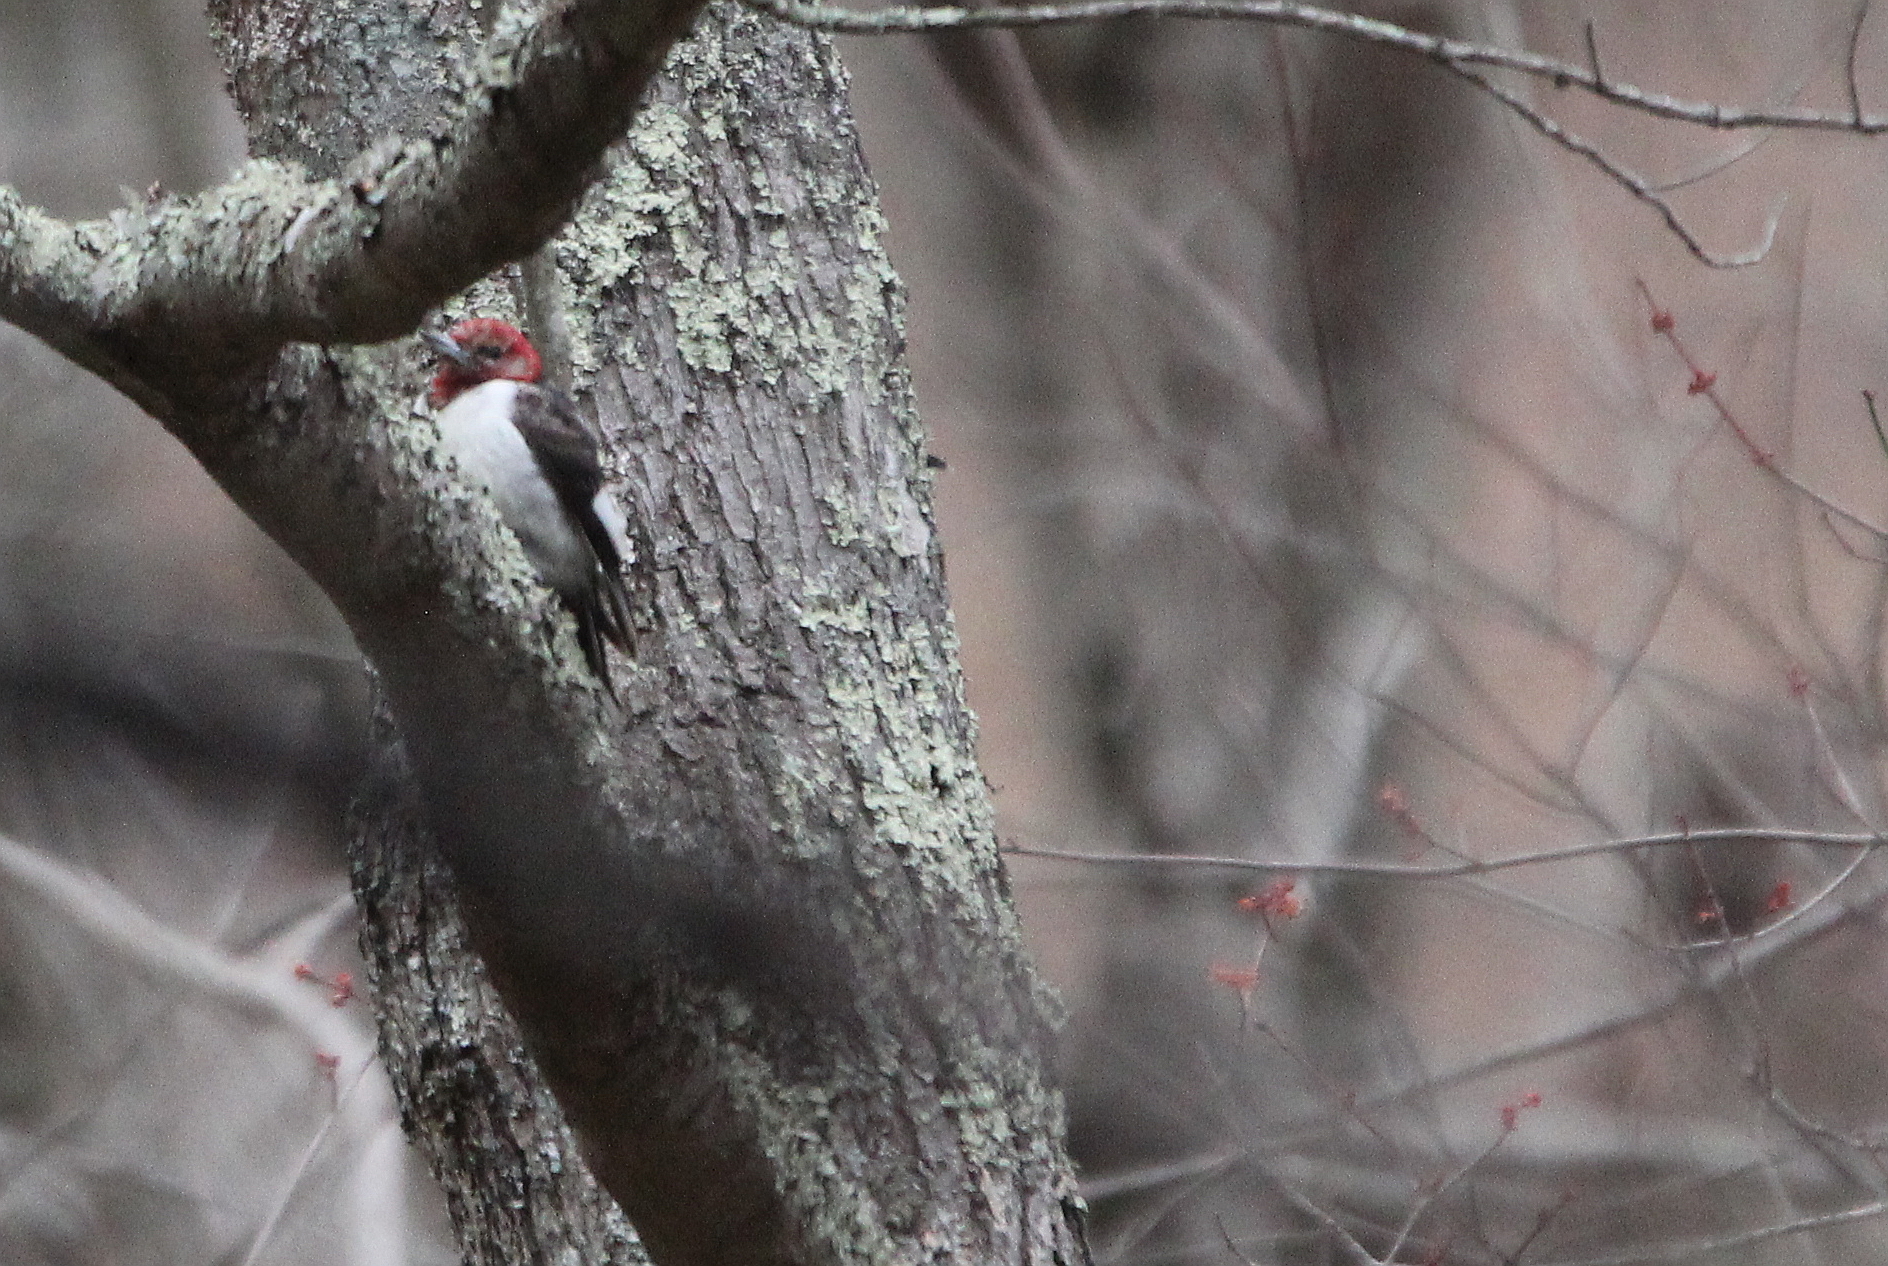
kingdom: Animalia
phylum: Chordata
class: Aves
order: Piciformes
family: Picidae
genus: Melanerpes
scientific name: Melanerpes erythrocephalus
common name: Red-headed woodpecker
